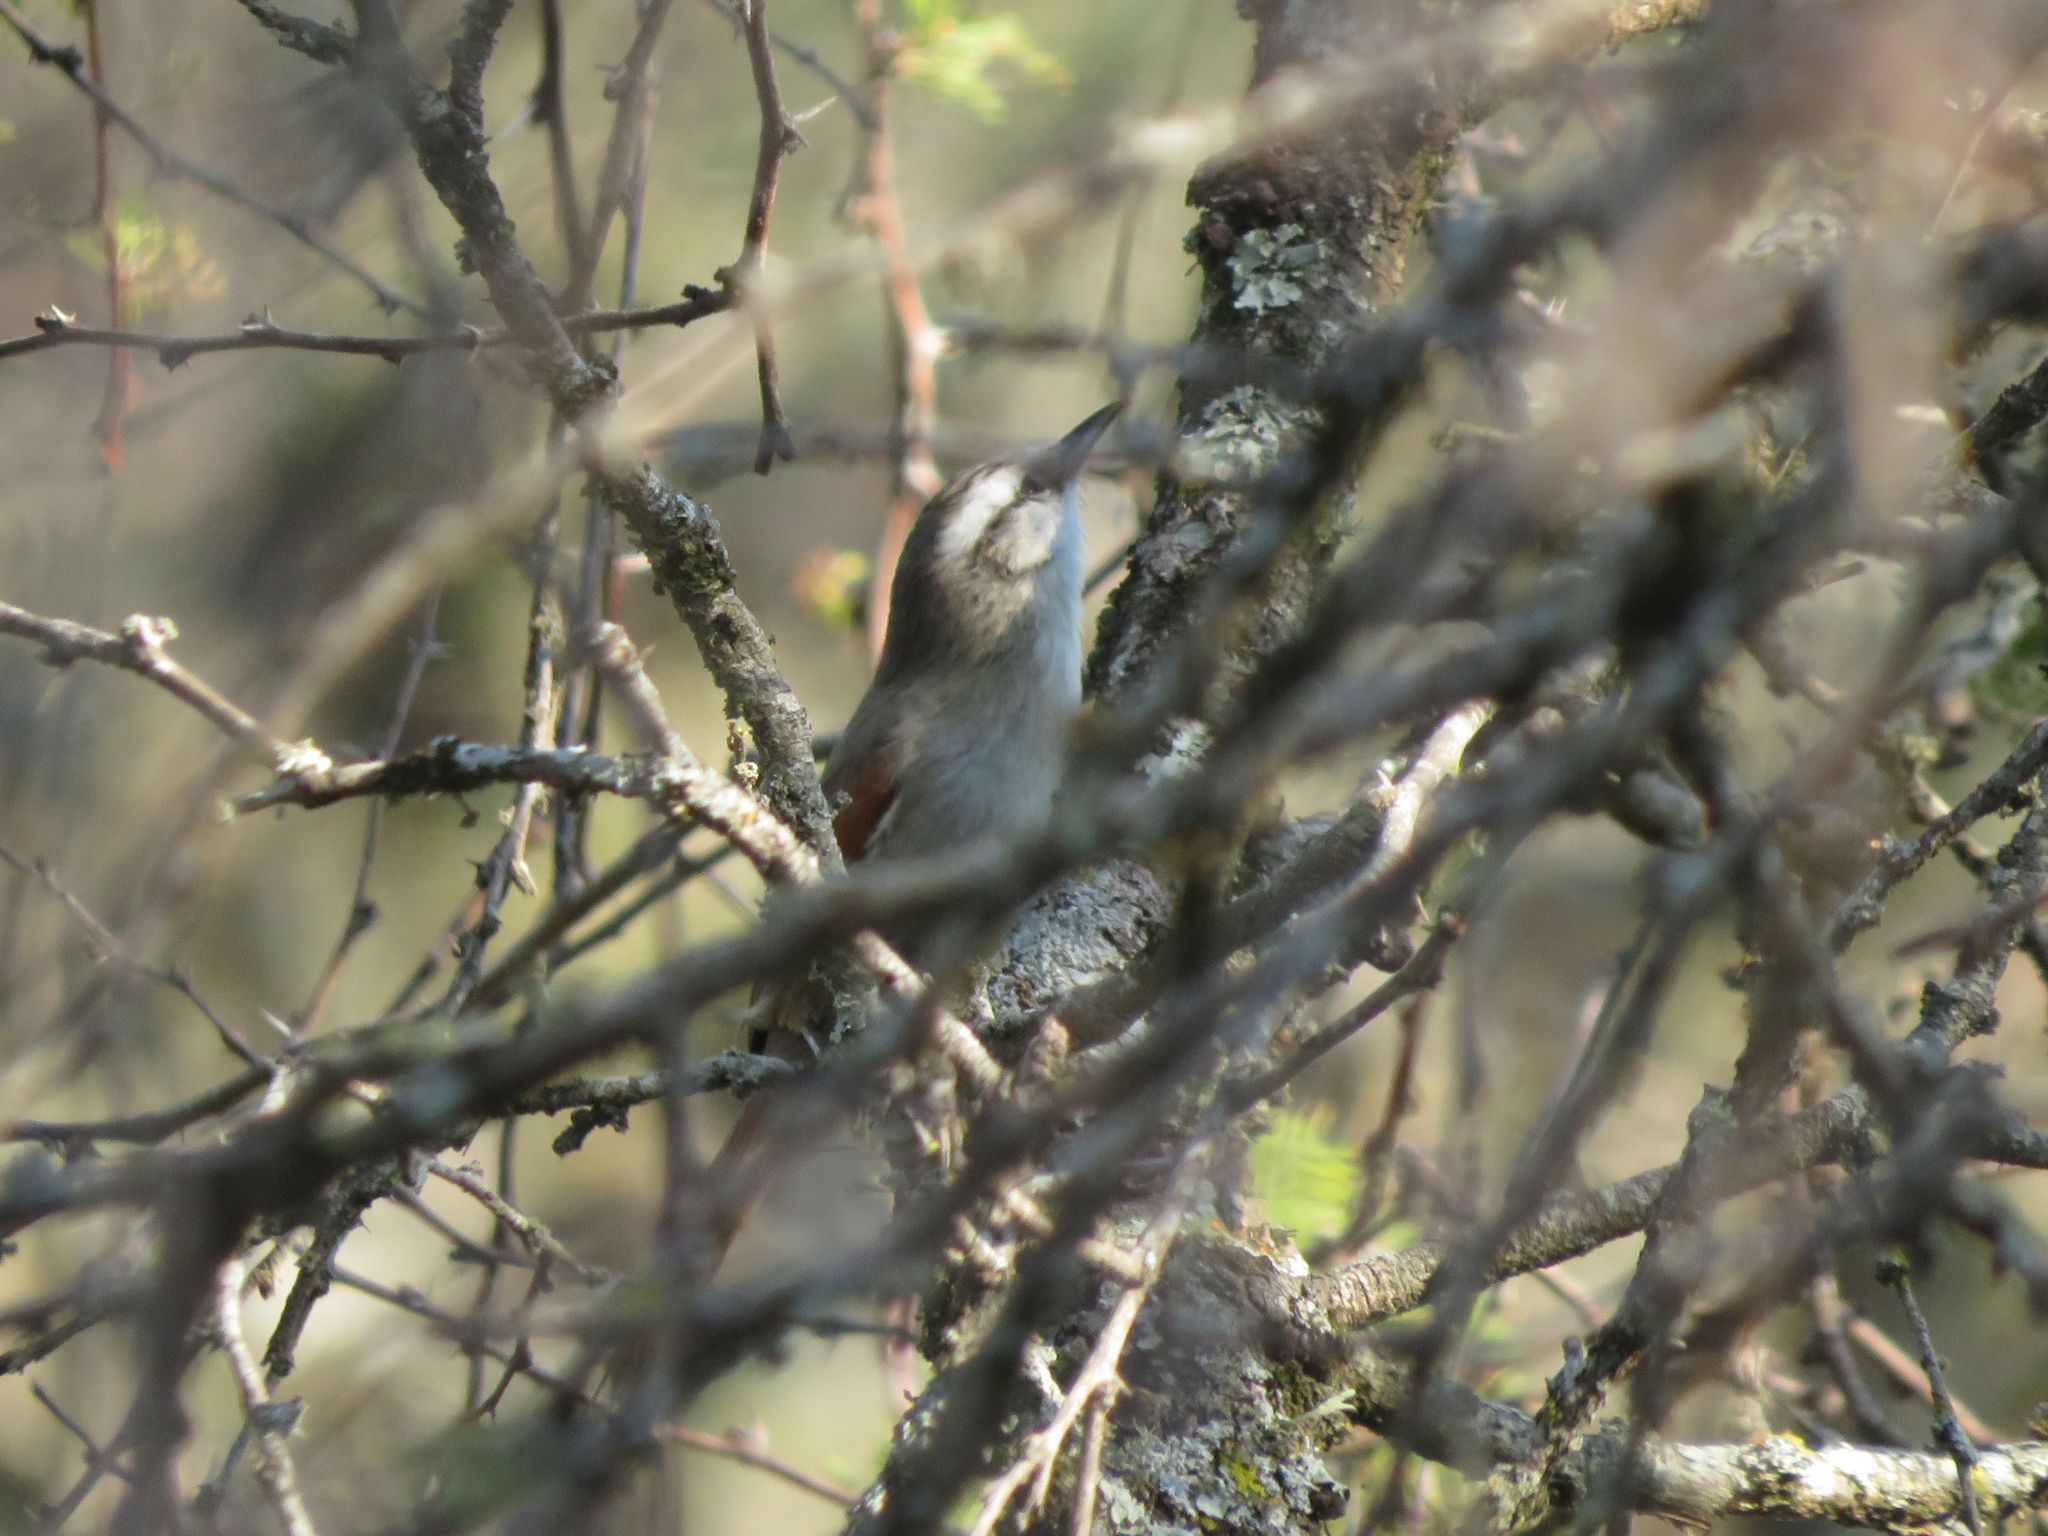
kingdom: Animalia
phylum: Chordata
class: Aves
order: Passeriformes
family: Furnariidae
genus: Cranioleuca
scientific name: Cranioleuca pyrrhophia
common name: Stripe-crowned spinetail
